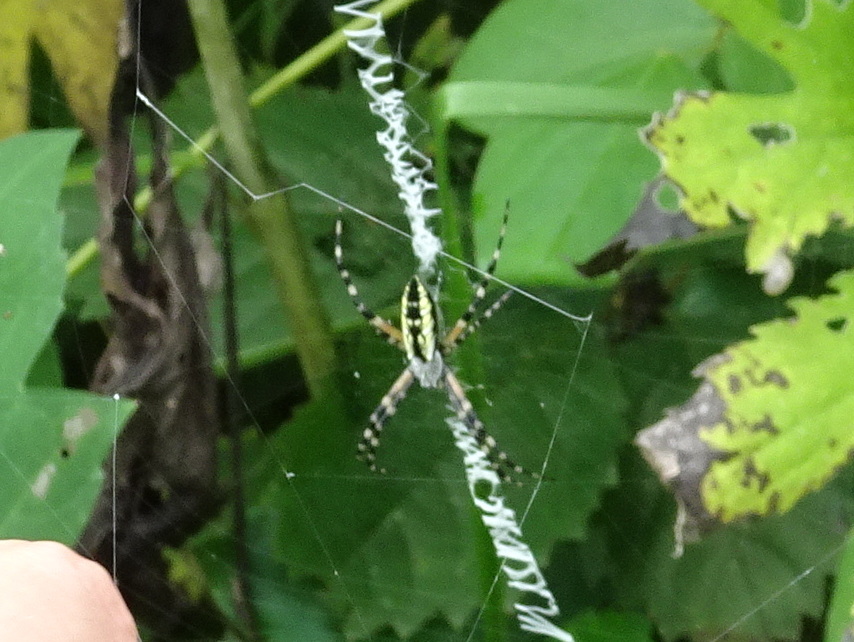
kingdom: Animalia
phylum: Arthropoda
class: Arachnida
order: Araneae
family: Araneidae
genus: Argiope
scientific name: Argiope aurantia
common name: Orb weavers
